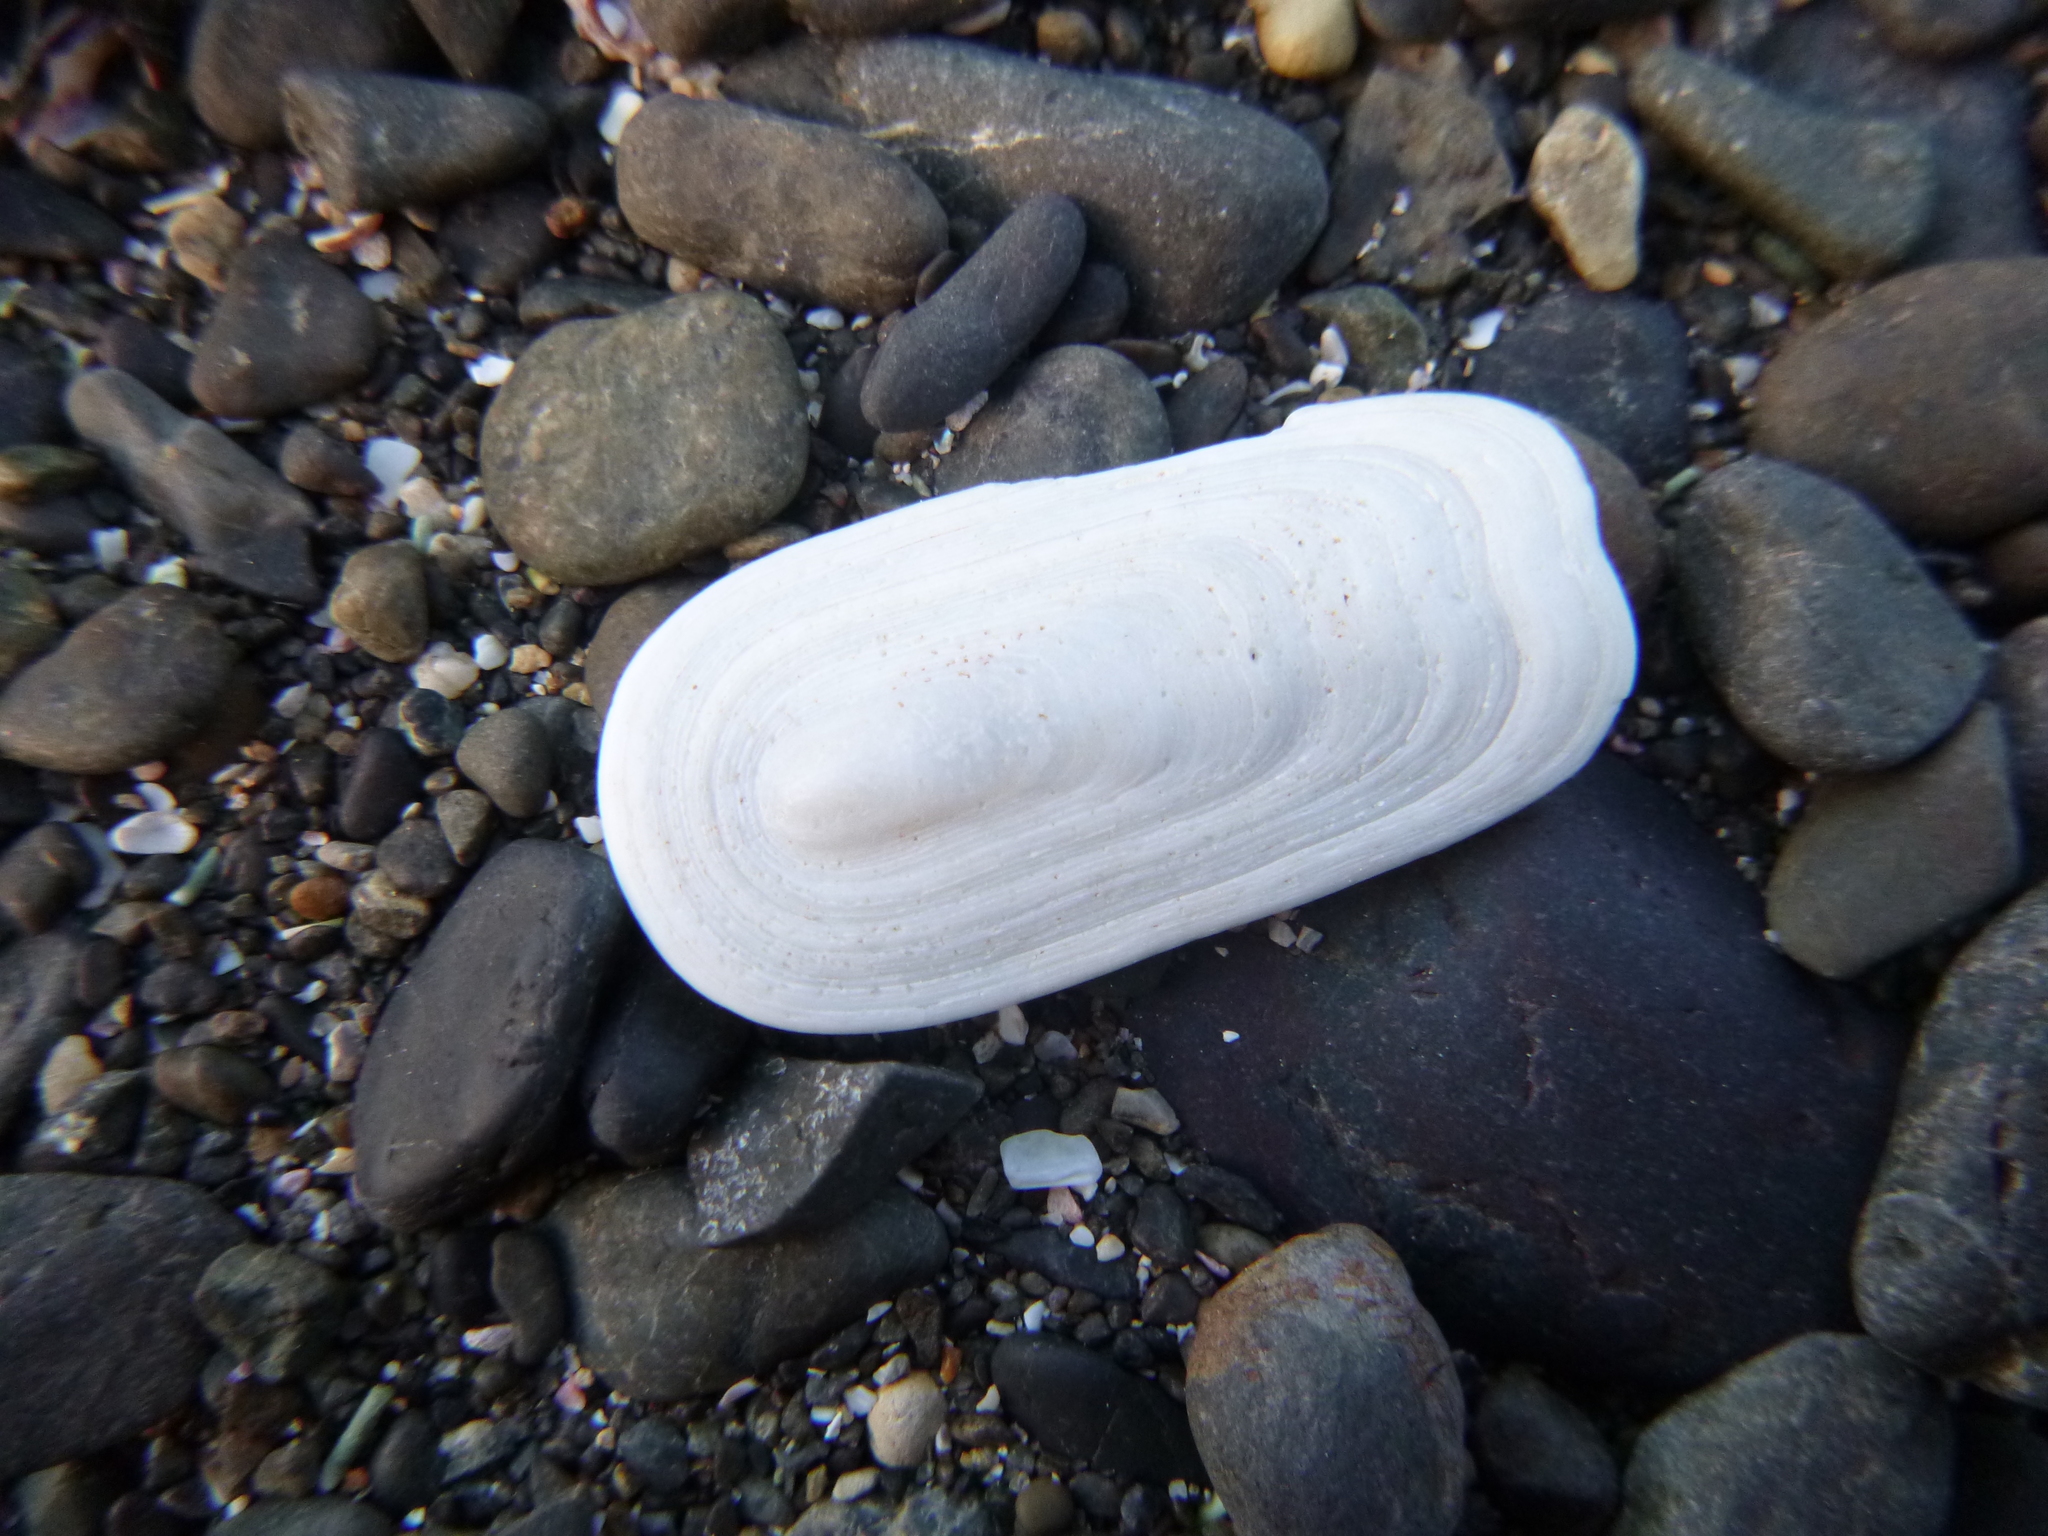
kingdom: Animalia
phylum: Mollusca
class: Gastropoda
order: Lepetellida
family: Fissurellidae
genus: Scutus
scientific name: Scutus breviculus
